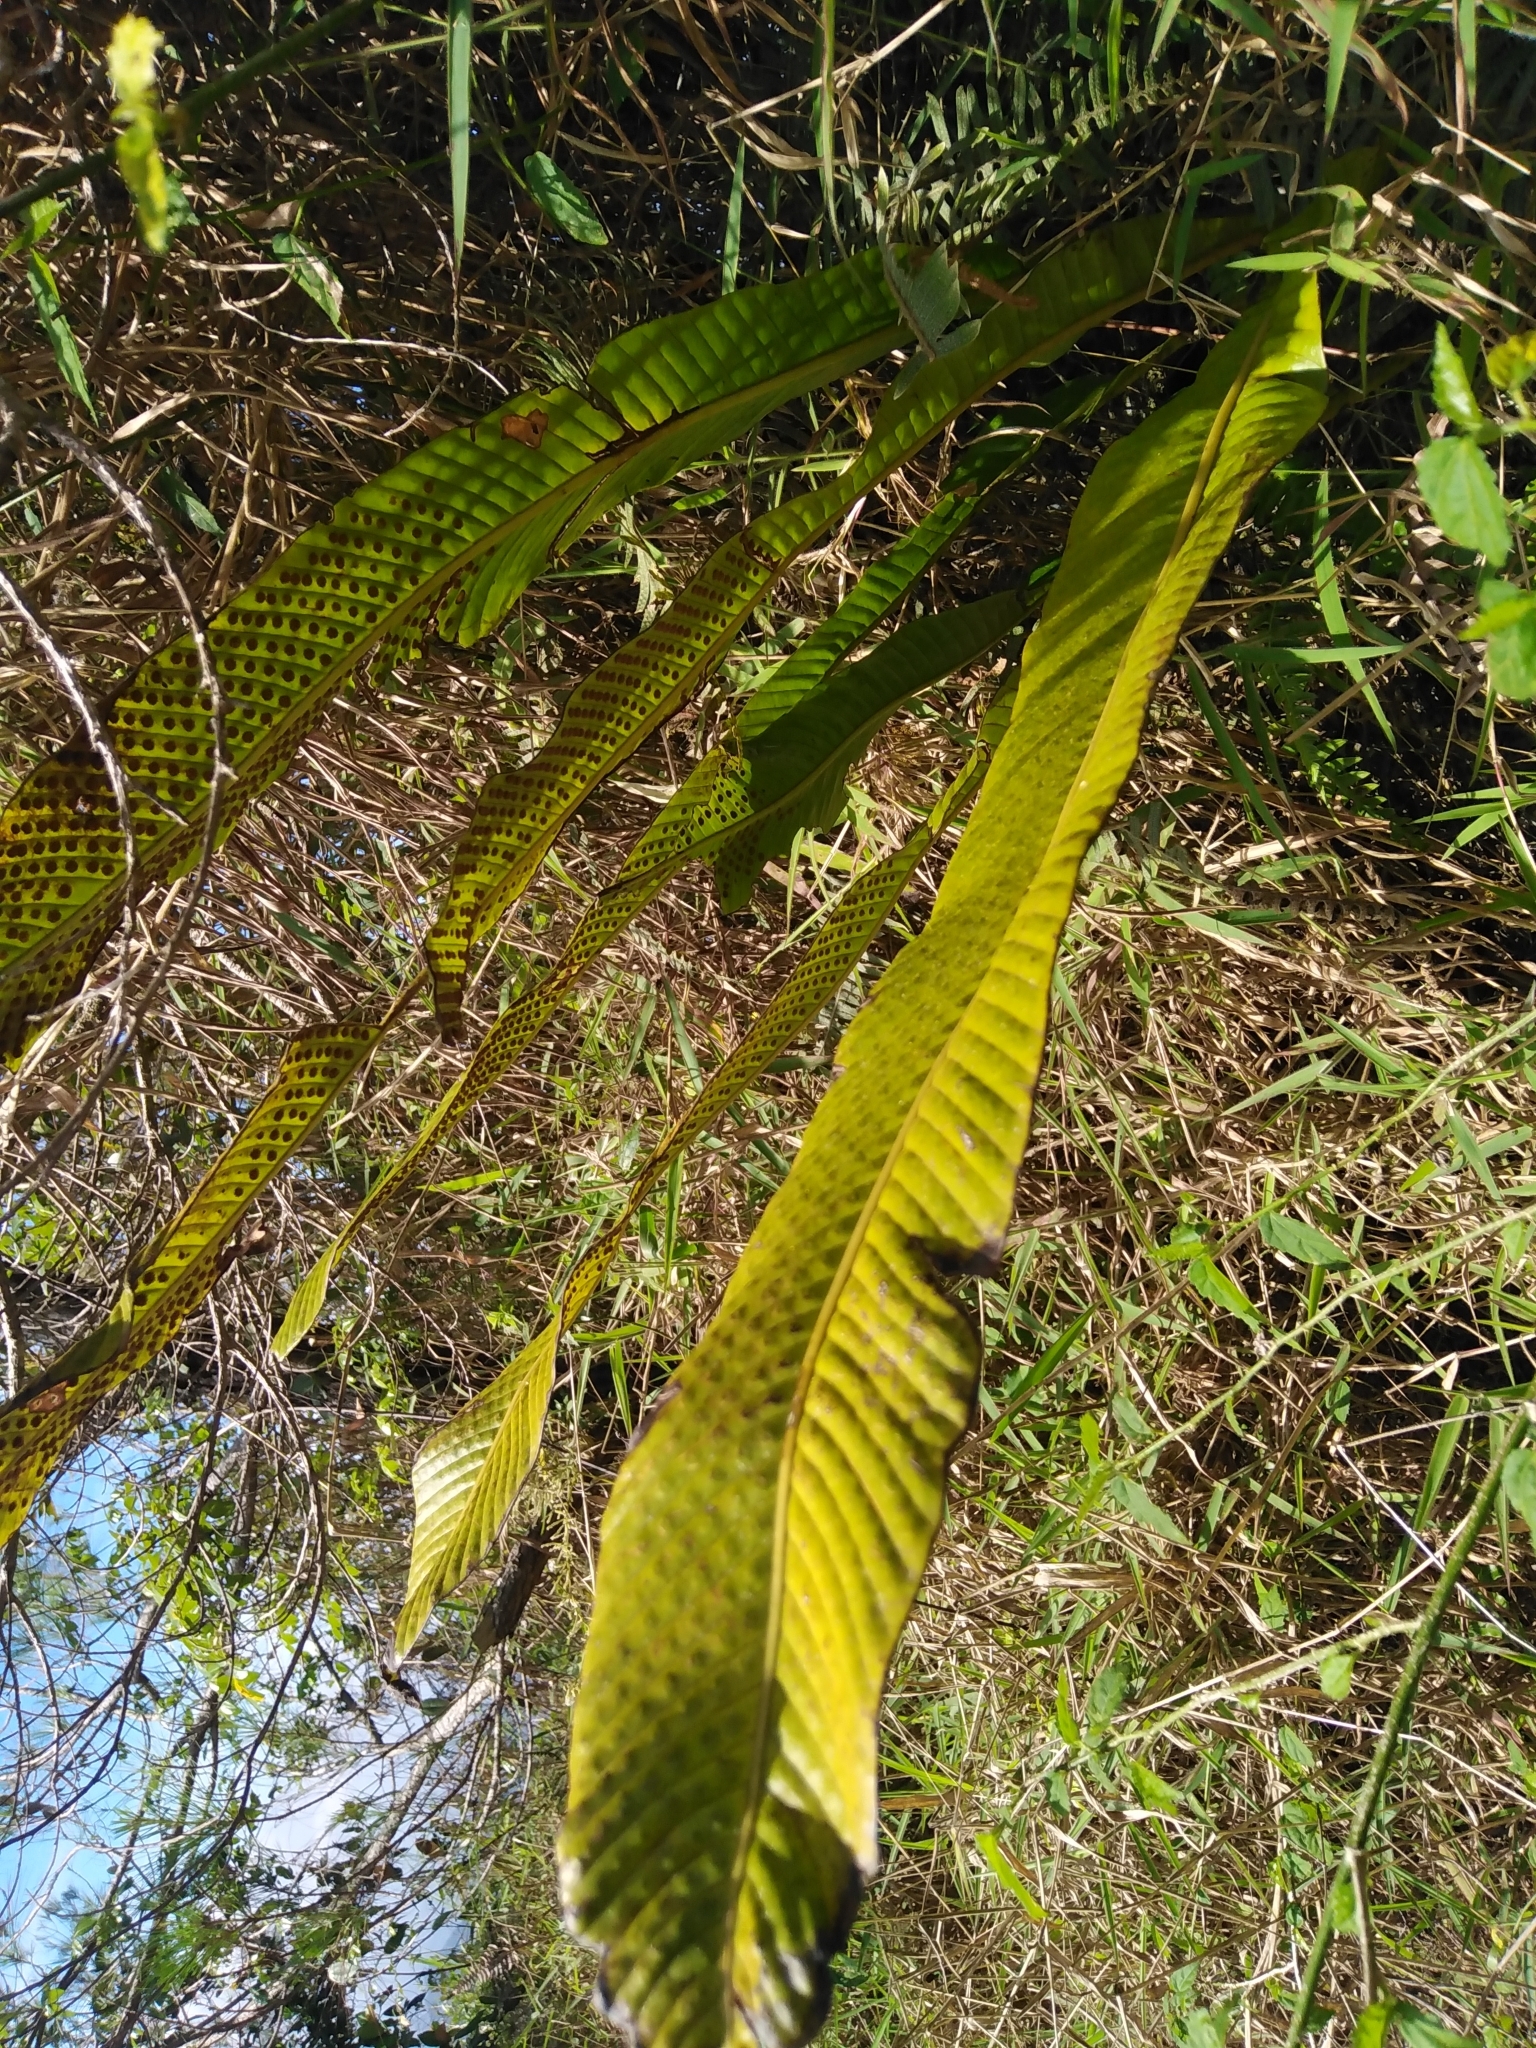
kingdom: Plantae
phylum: Tracheophyta
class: Polypodiopsida
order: Polypodiales
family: Polypodiaceae
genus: Niphidium
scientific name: Niphidium crassifolium
